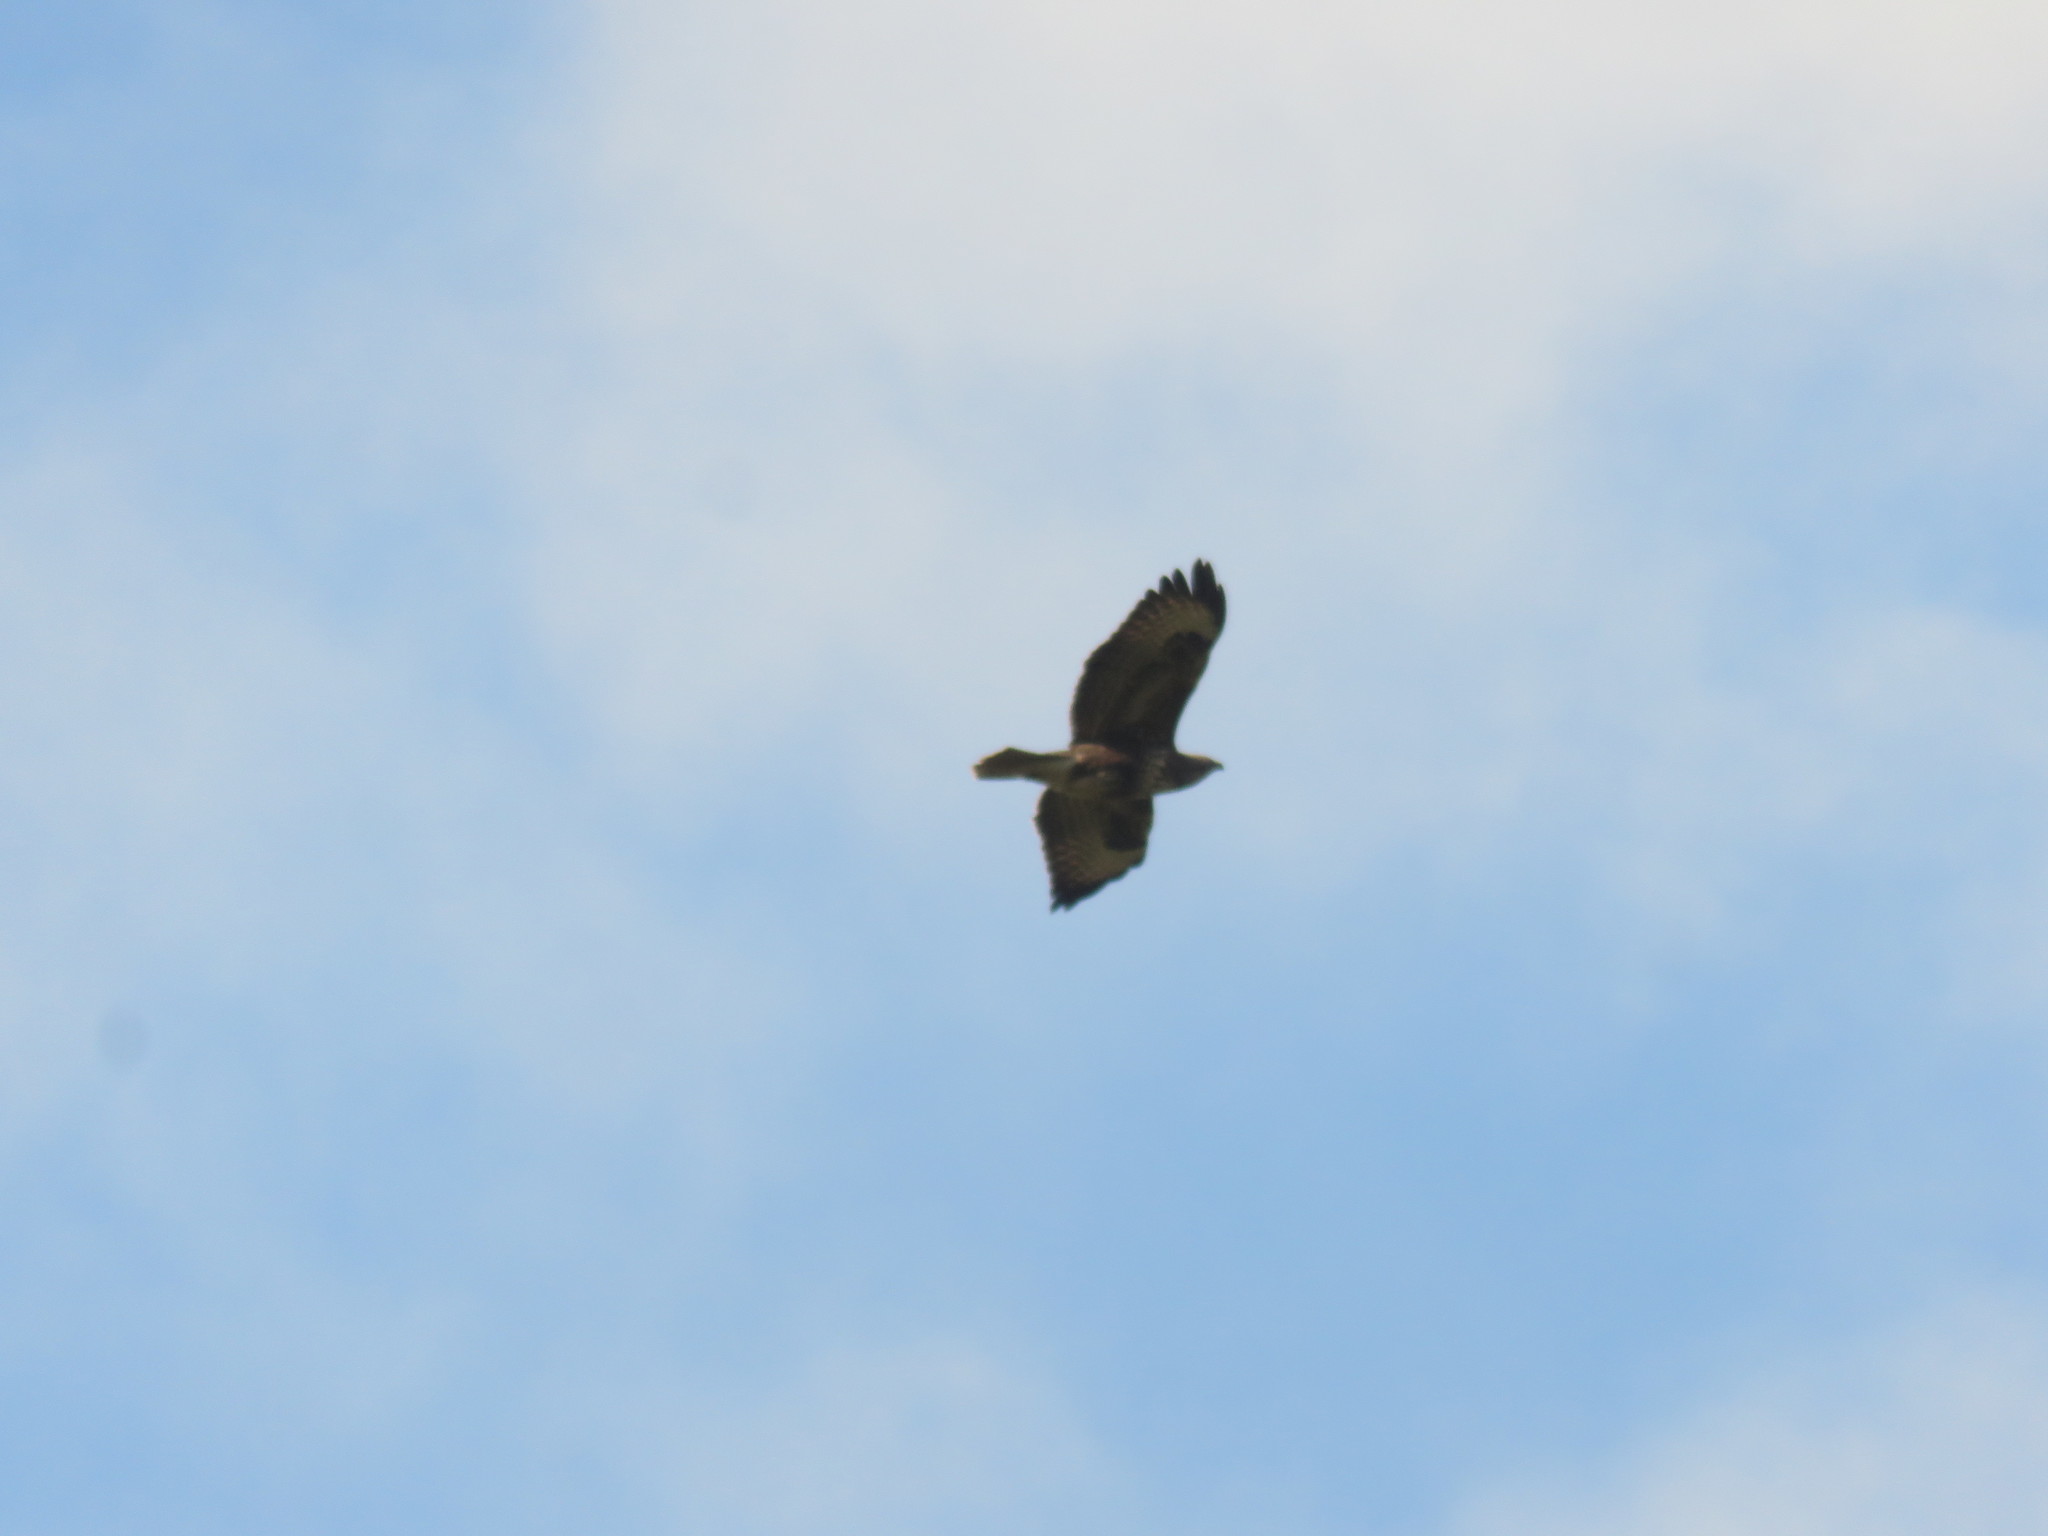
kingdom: Animalia
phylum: Chordata
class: Aves
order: Accipitriformes
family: Accipitridae
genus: Buteo
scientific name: Buteo buteo
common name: Common buzzard
